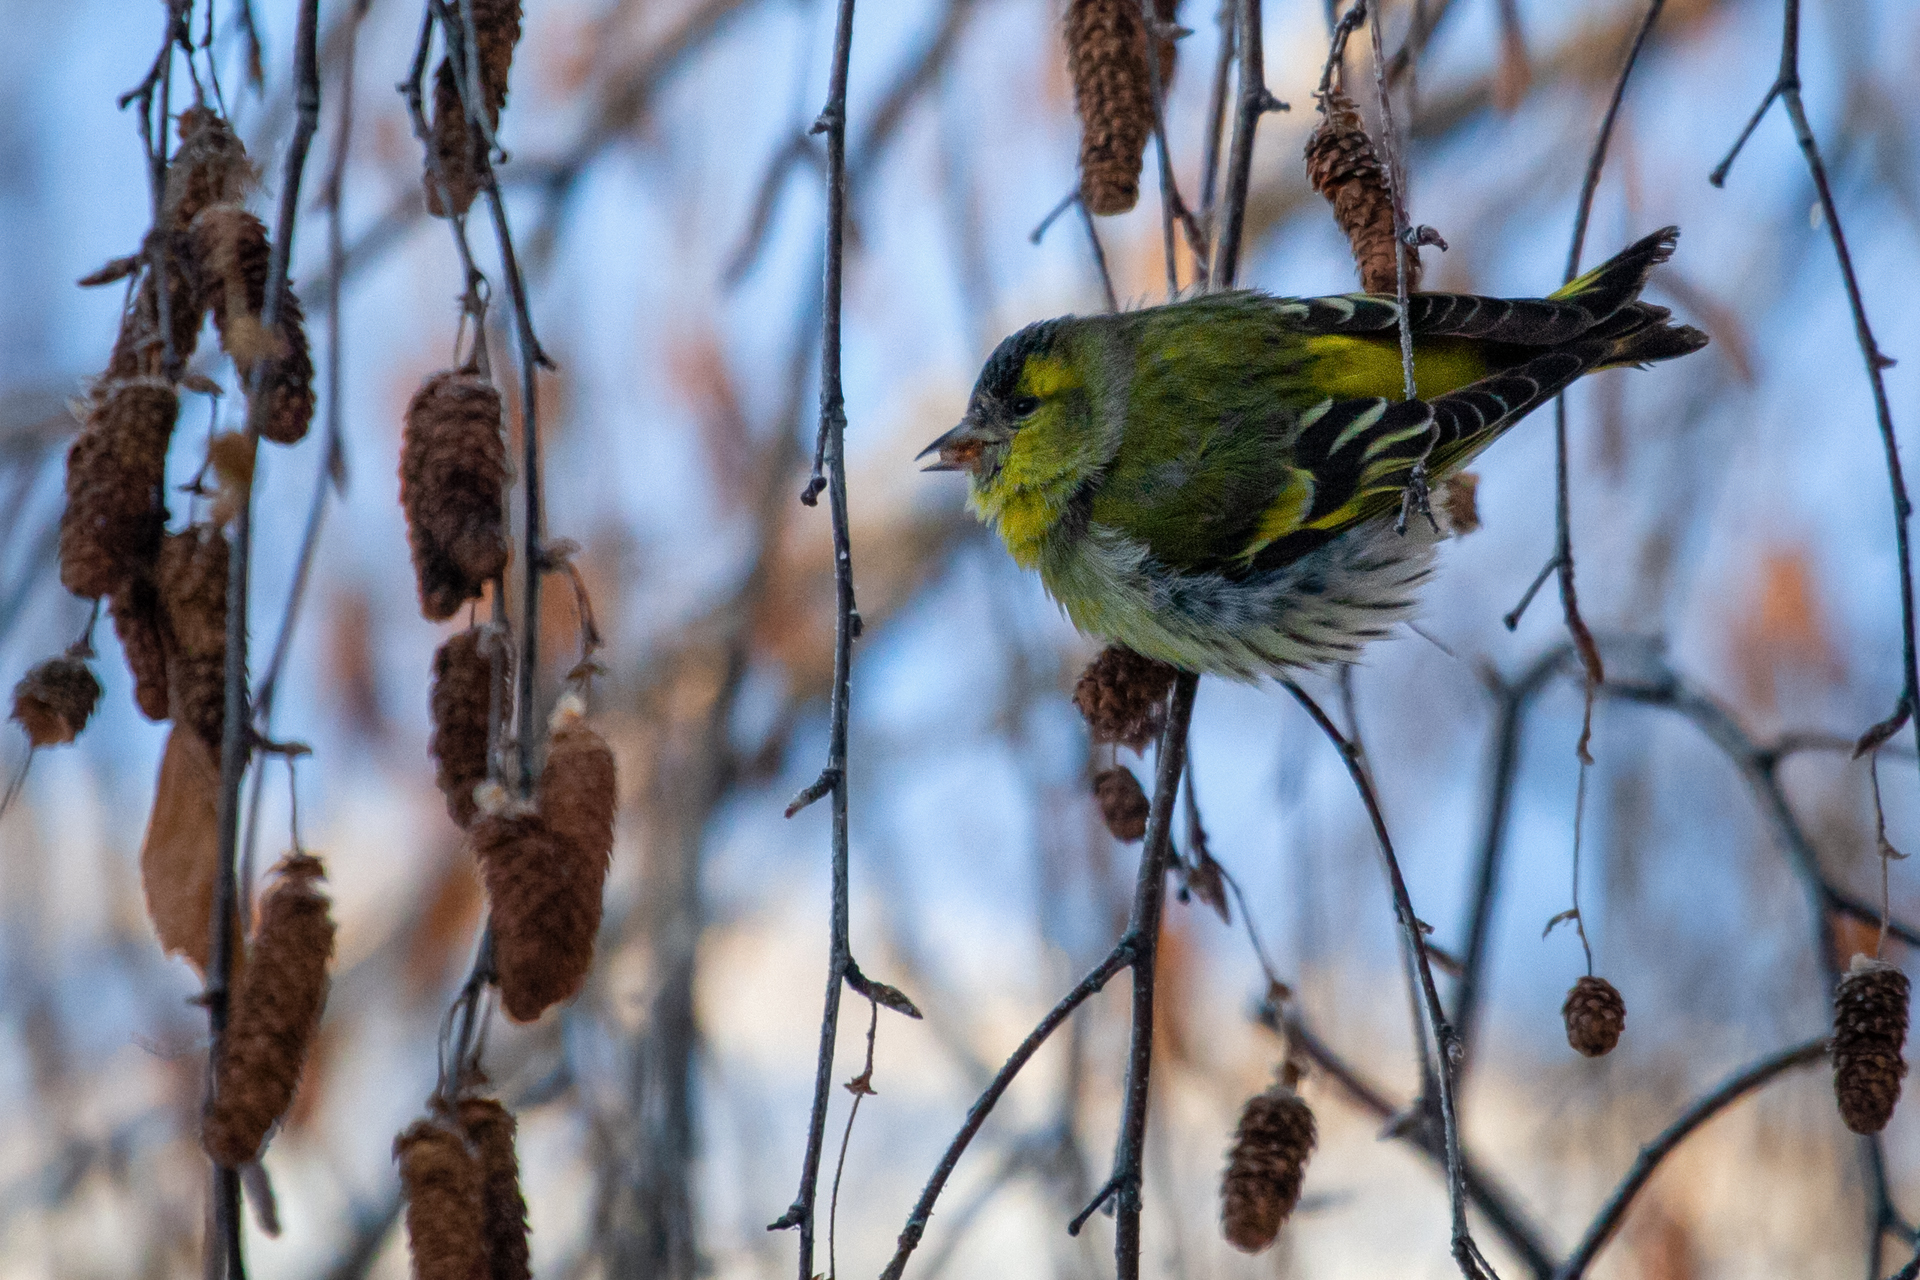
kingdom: Animalia
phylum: Chordata
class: Aves
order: Passeriformes
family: Fringillidae
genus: Spinus
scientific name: Spinus spinus
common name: Eurasian siskin
